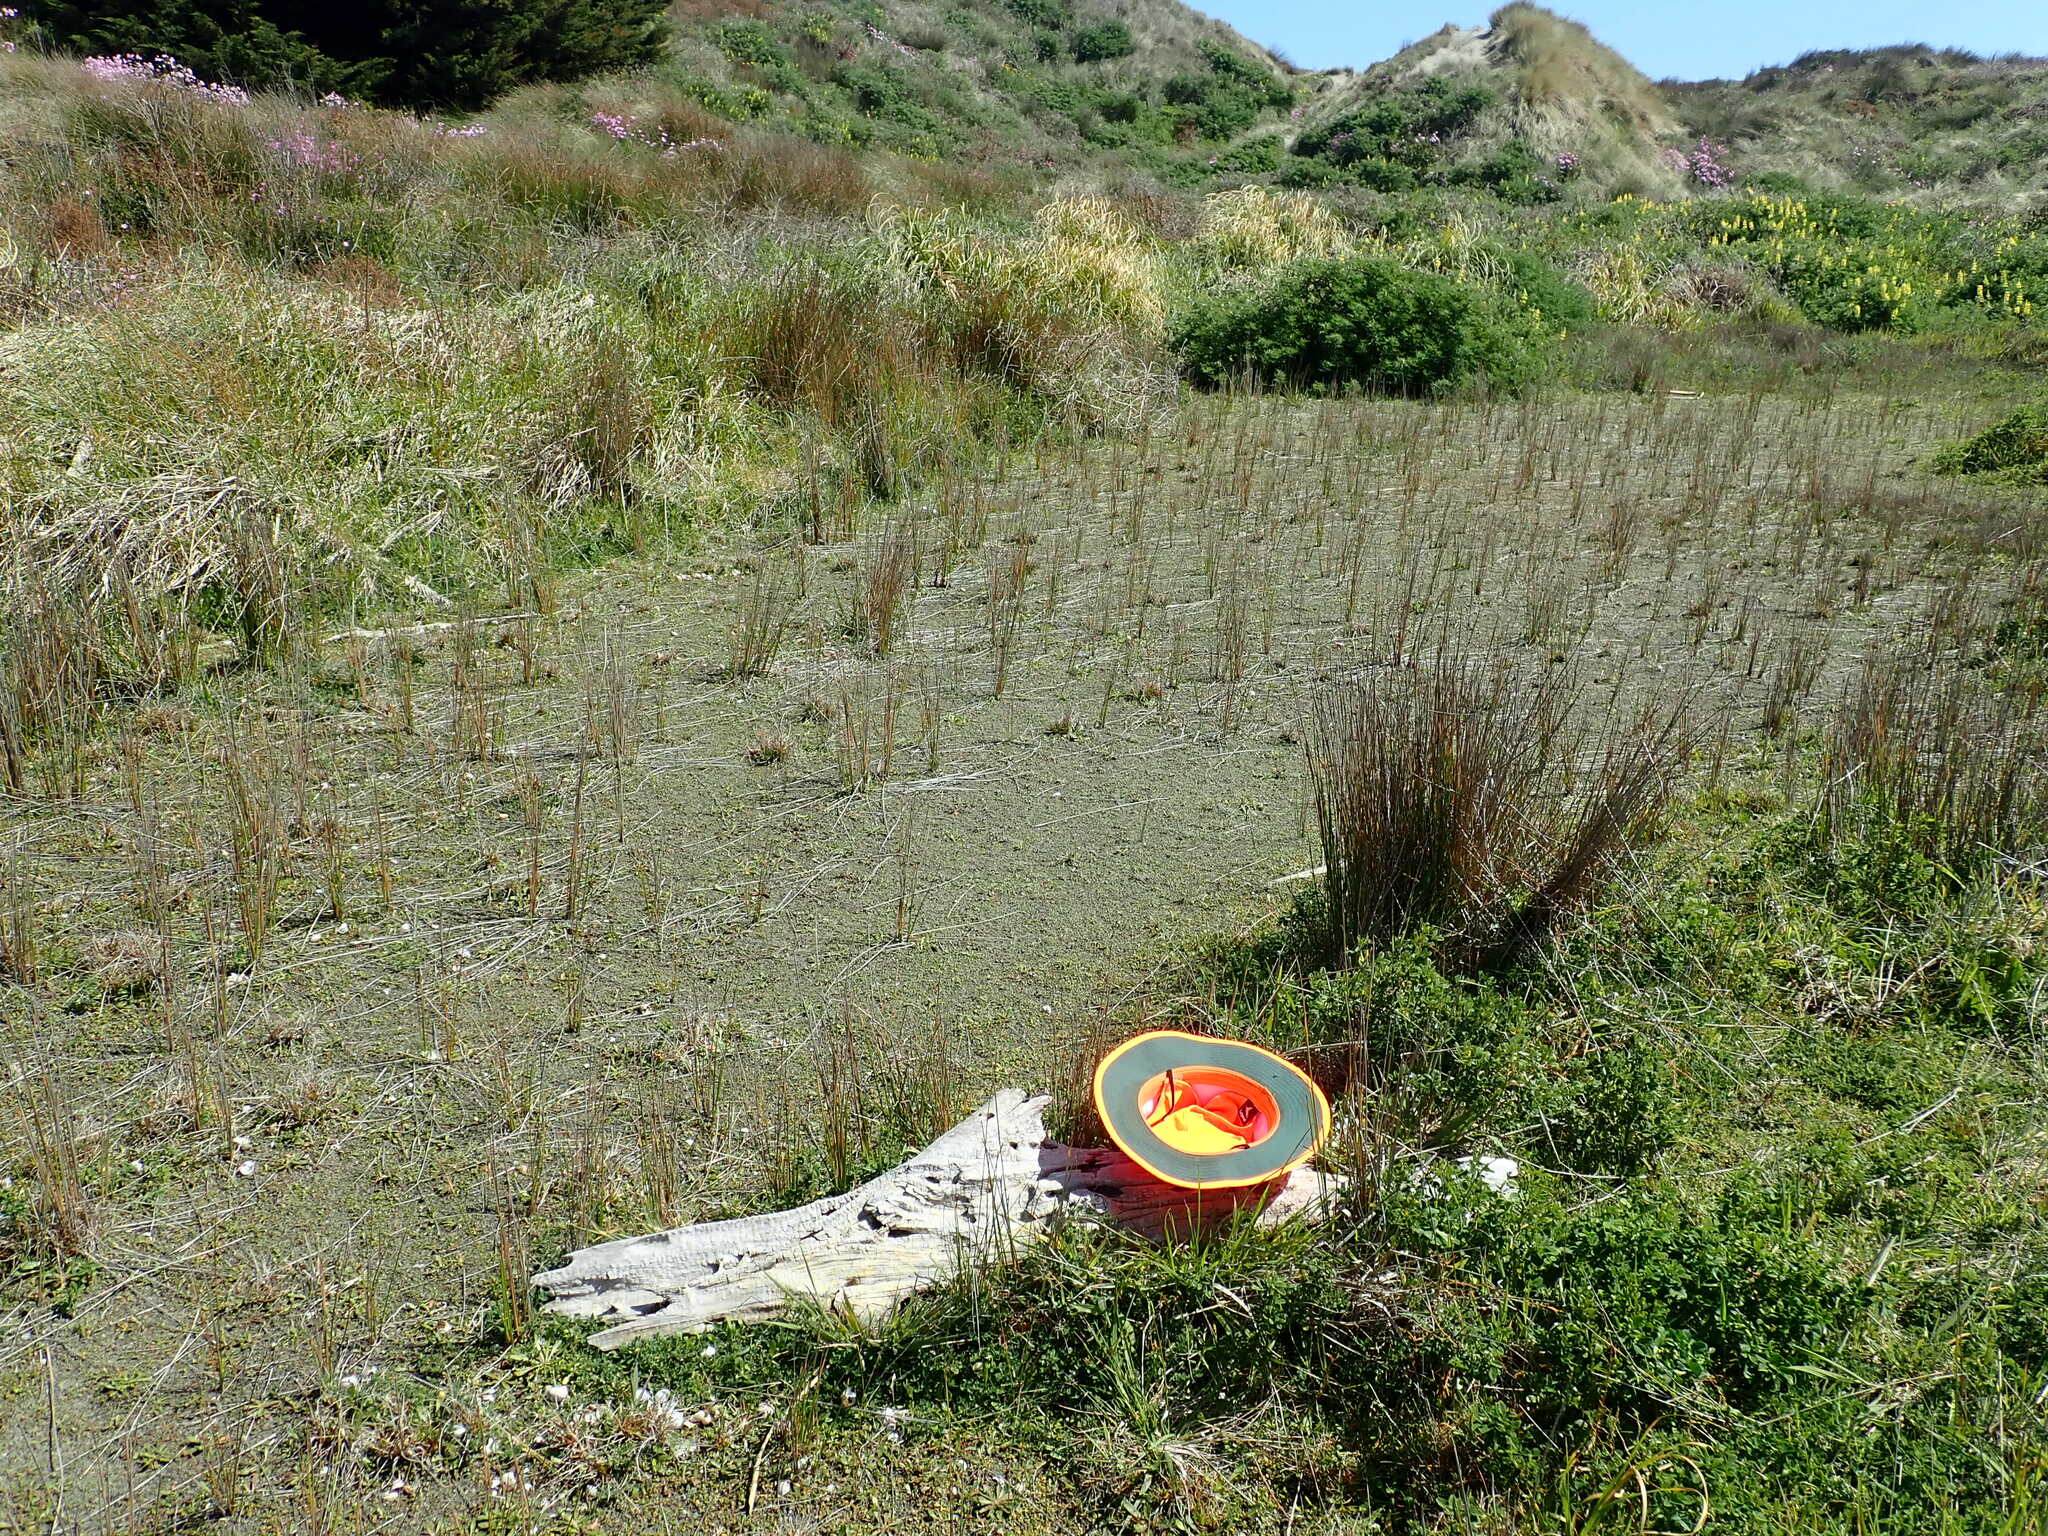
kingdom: Animalia
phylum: Arthropoda
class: Arachnida
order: Araneae
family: Stiphidiidae
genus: Stiphidion
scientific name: Stiphidion facetum
